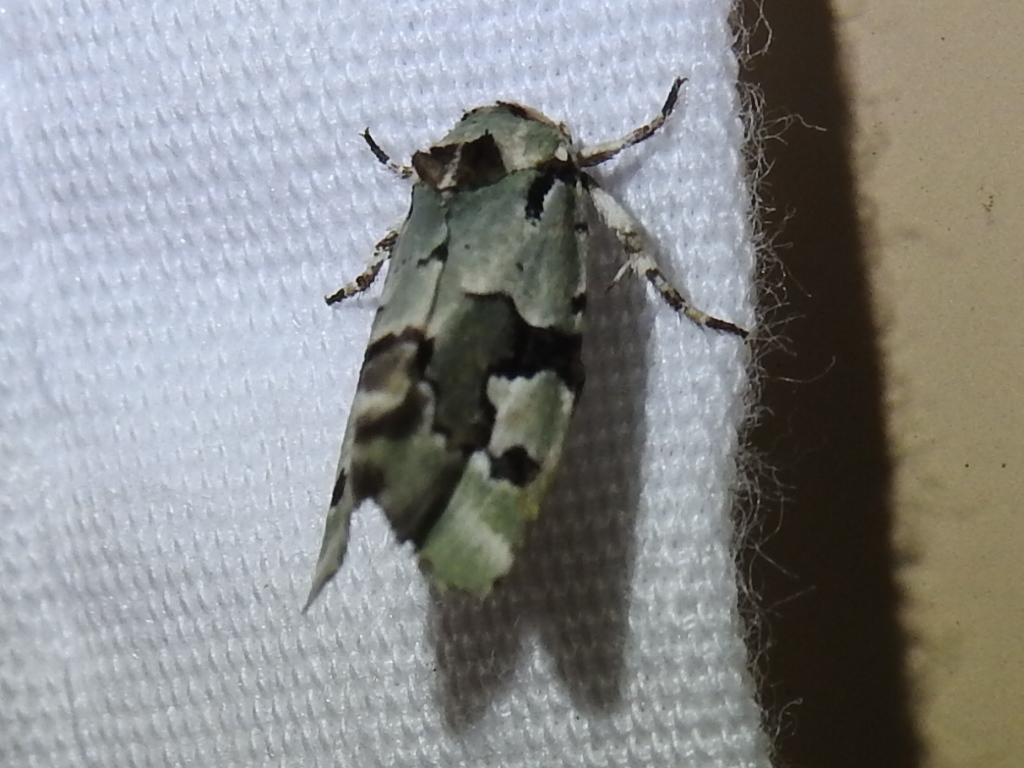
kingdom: Animalia
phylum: Arthropoda
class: Insecta
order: Lepidoptera
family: Noctuidae
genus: Emarginea
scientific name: Emarginea percara
